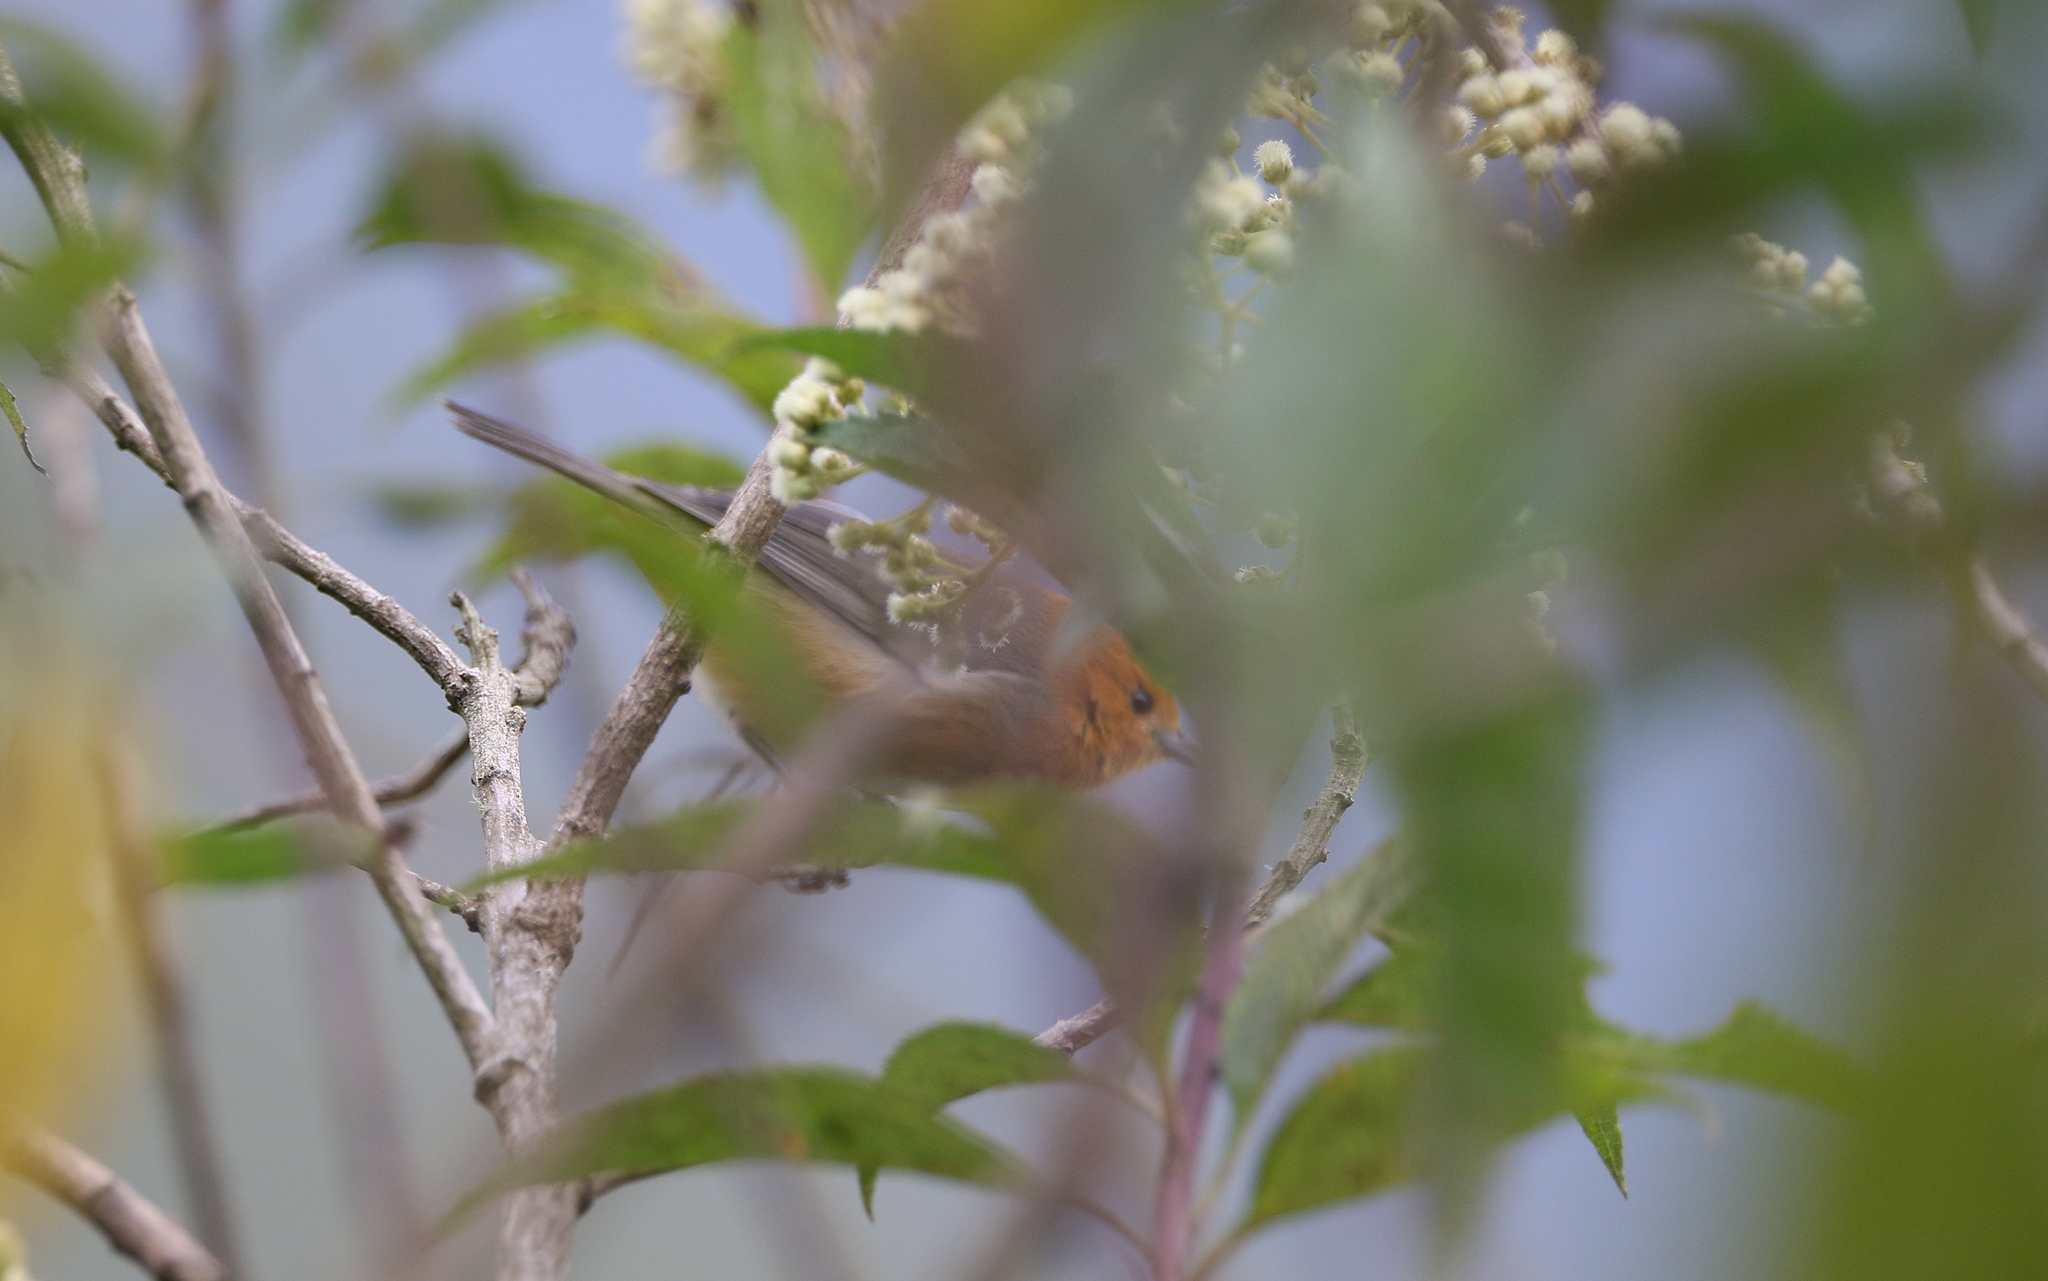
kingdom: Animalia
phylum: Chordata
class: Aves
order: Passeriformes
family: Thraupidae
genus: Thlypopsis
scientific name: Thlypopsis ornata
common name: Rufous-chested tanager
